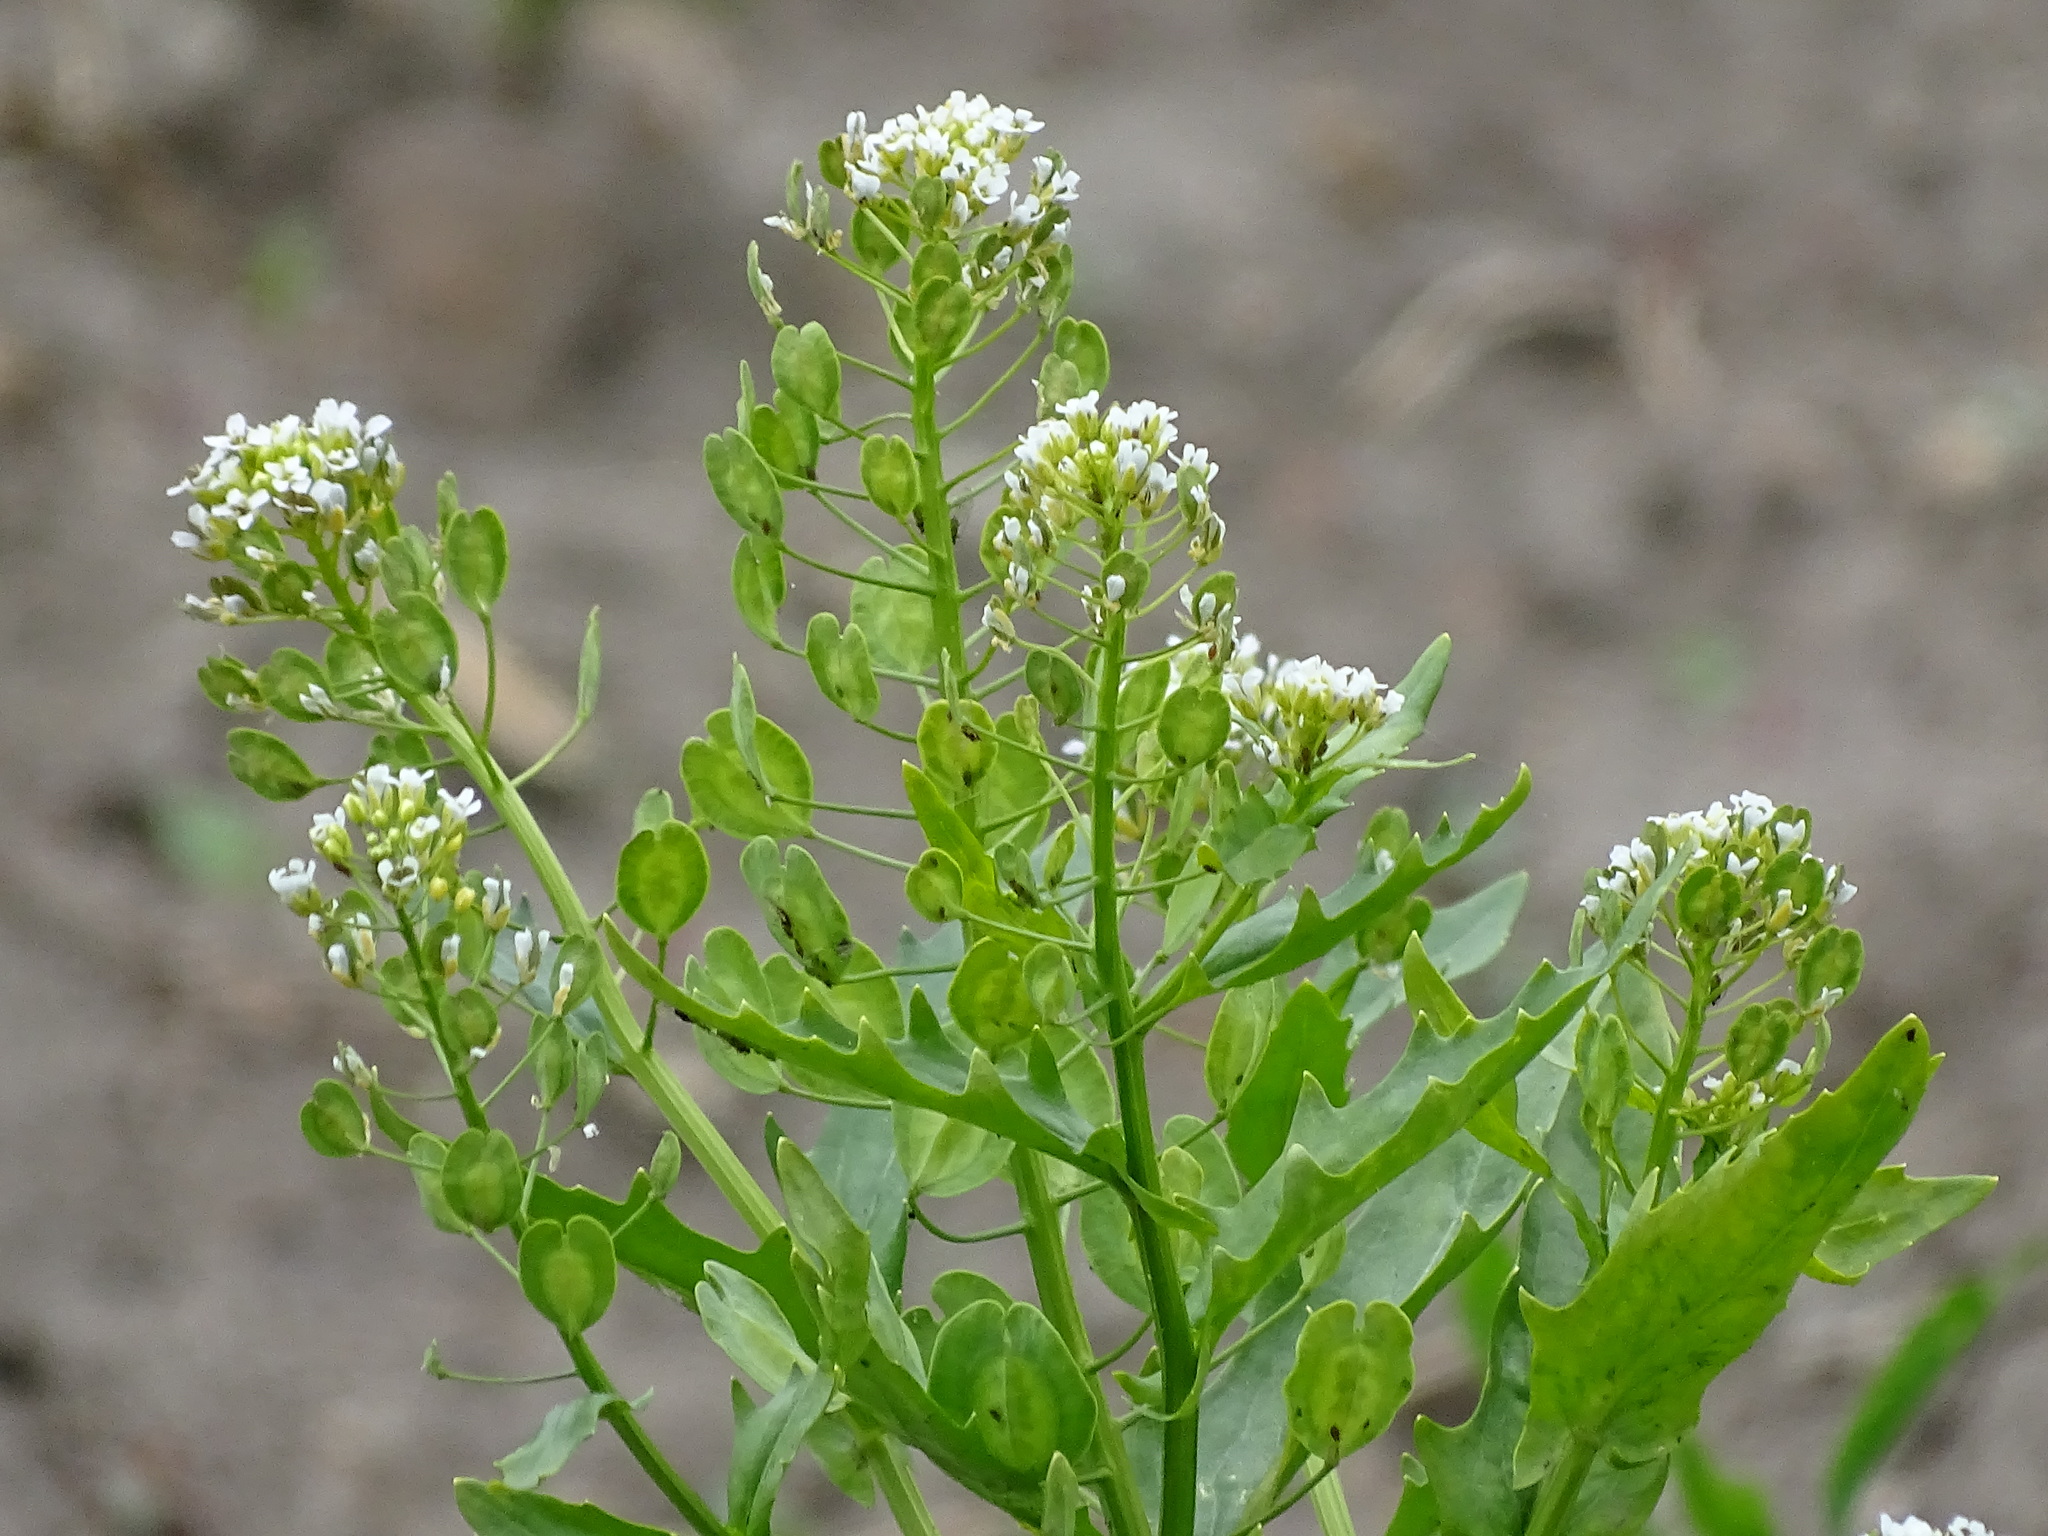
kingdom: Plantae
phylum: Tracheophyta
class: Magnoliopsida
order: Brassicales
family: Brassicaceae
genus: Thlaspi
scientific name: Thlaspi arvense
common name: Field pennycress
